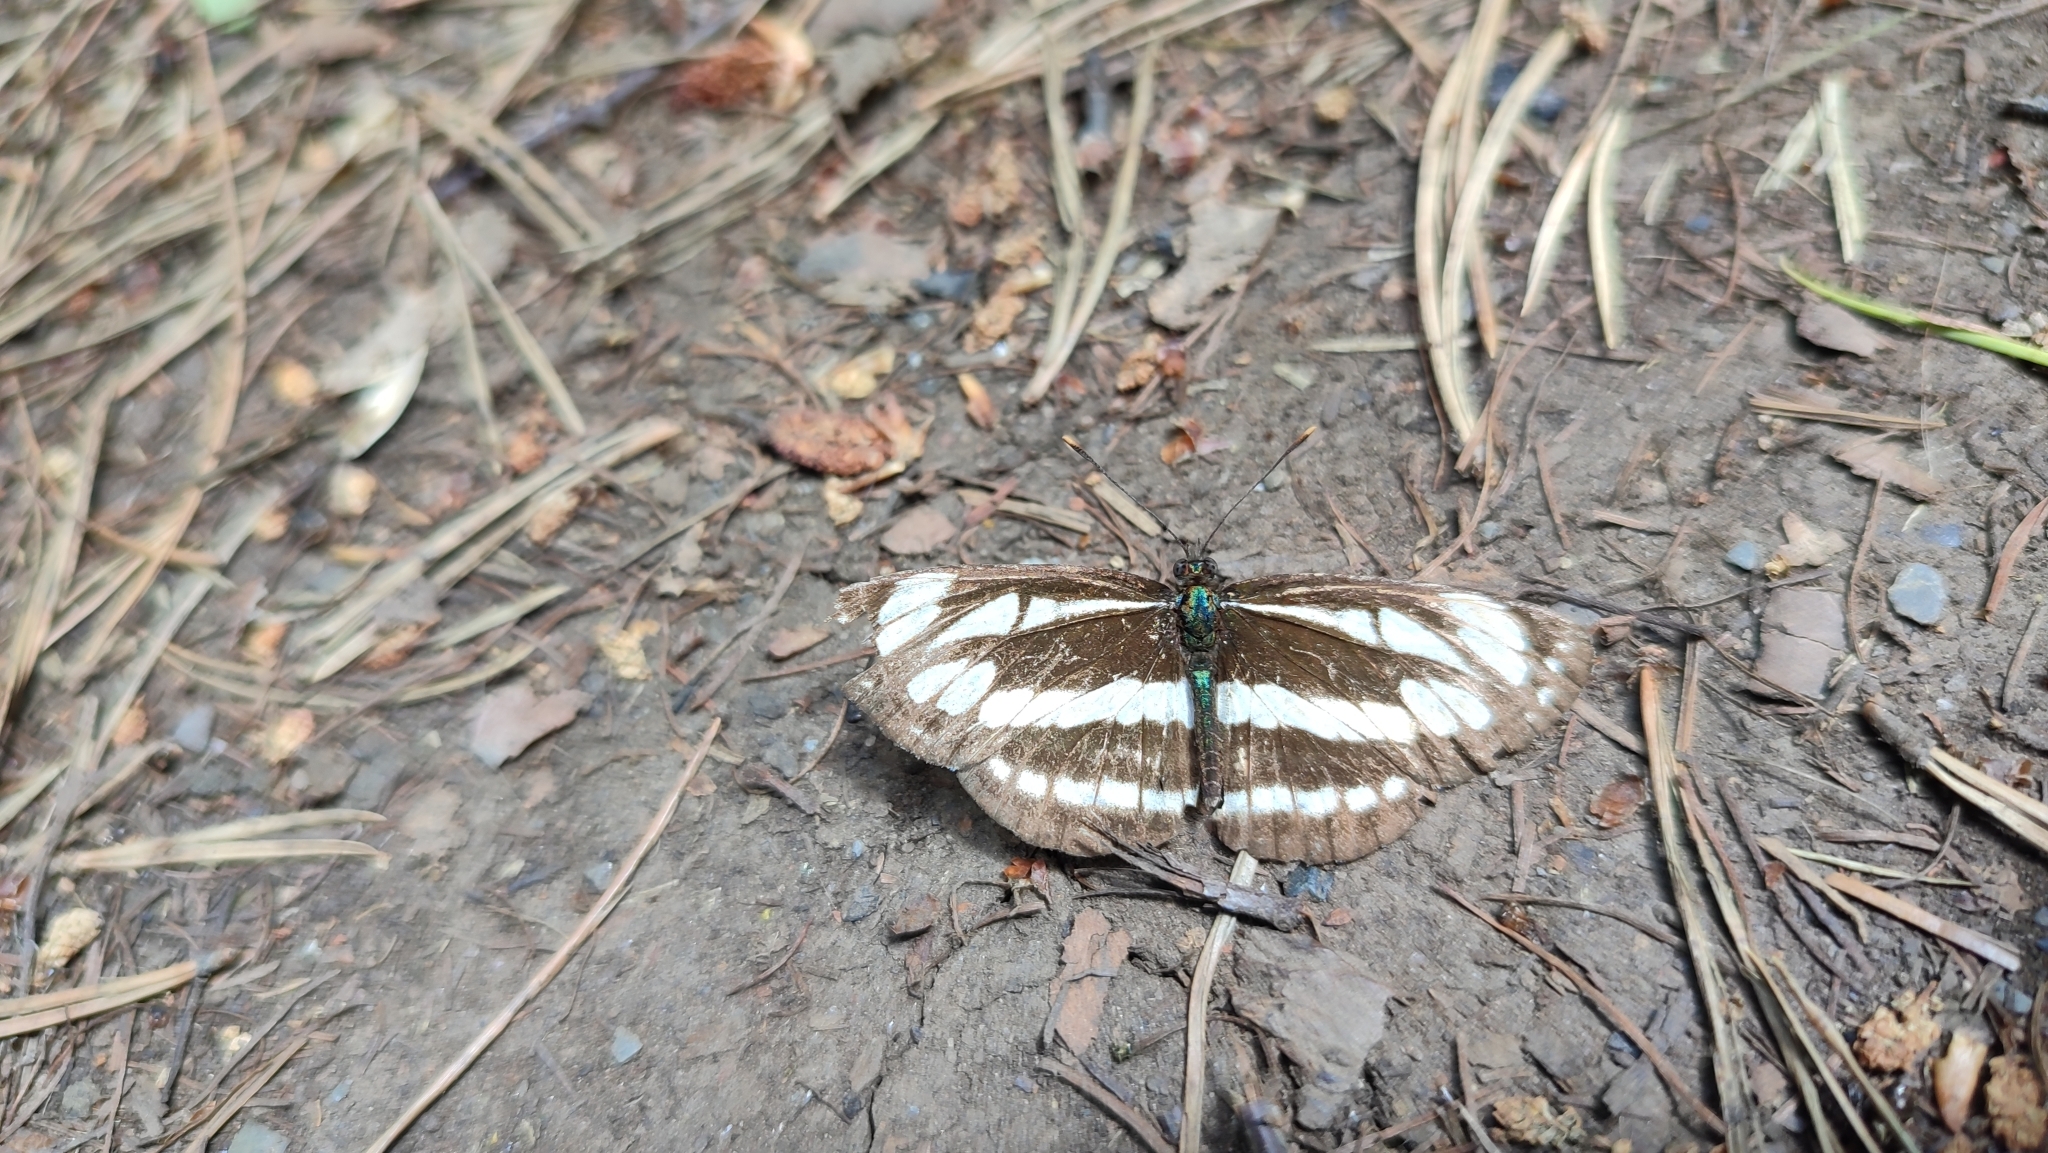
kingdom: Animalia
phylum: Arthropoda
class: Insecta
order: Lepidoptera
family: Nymphalidae
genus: Neptis
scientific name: Neptis sappho
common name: Common glider
